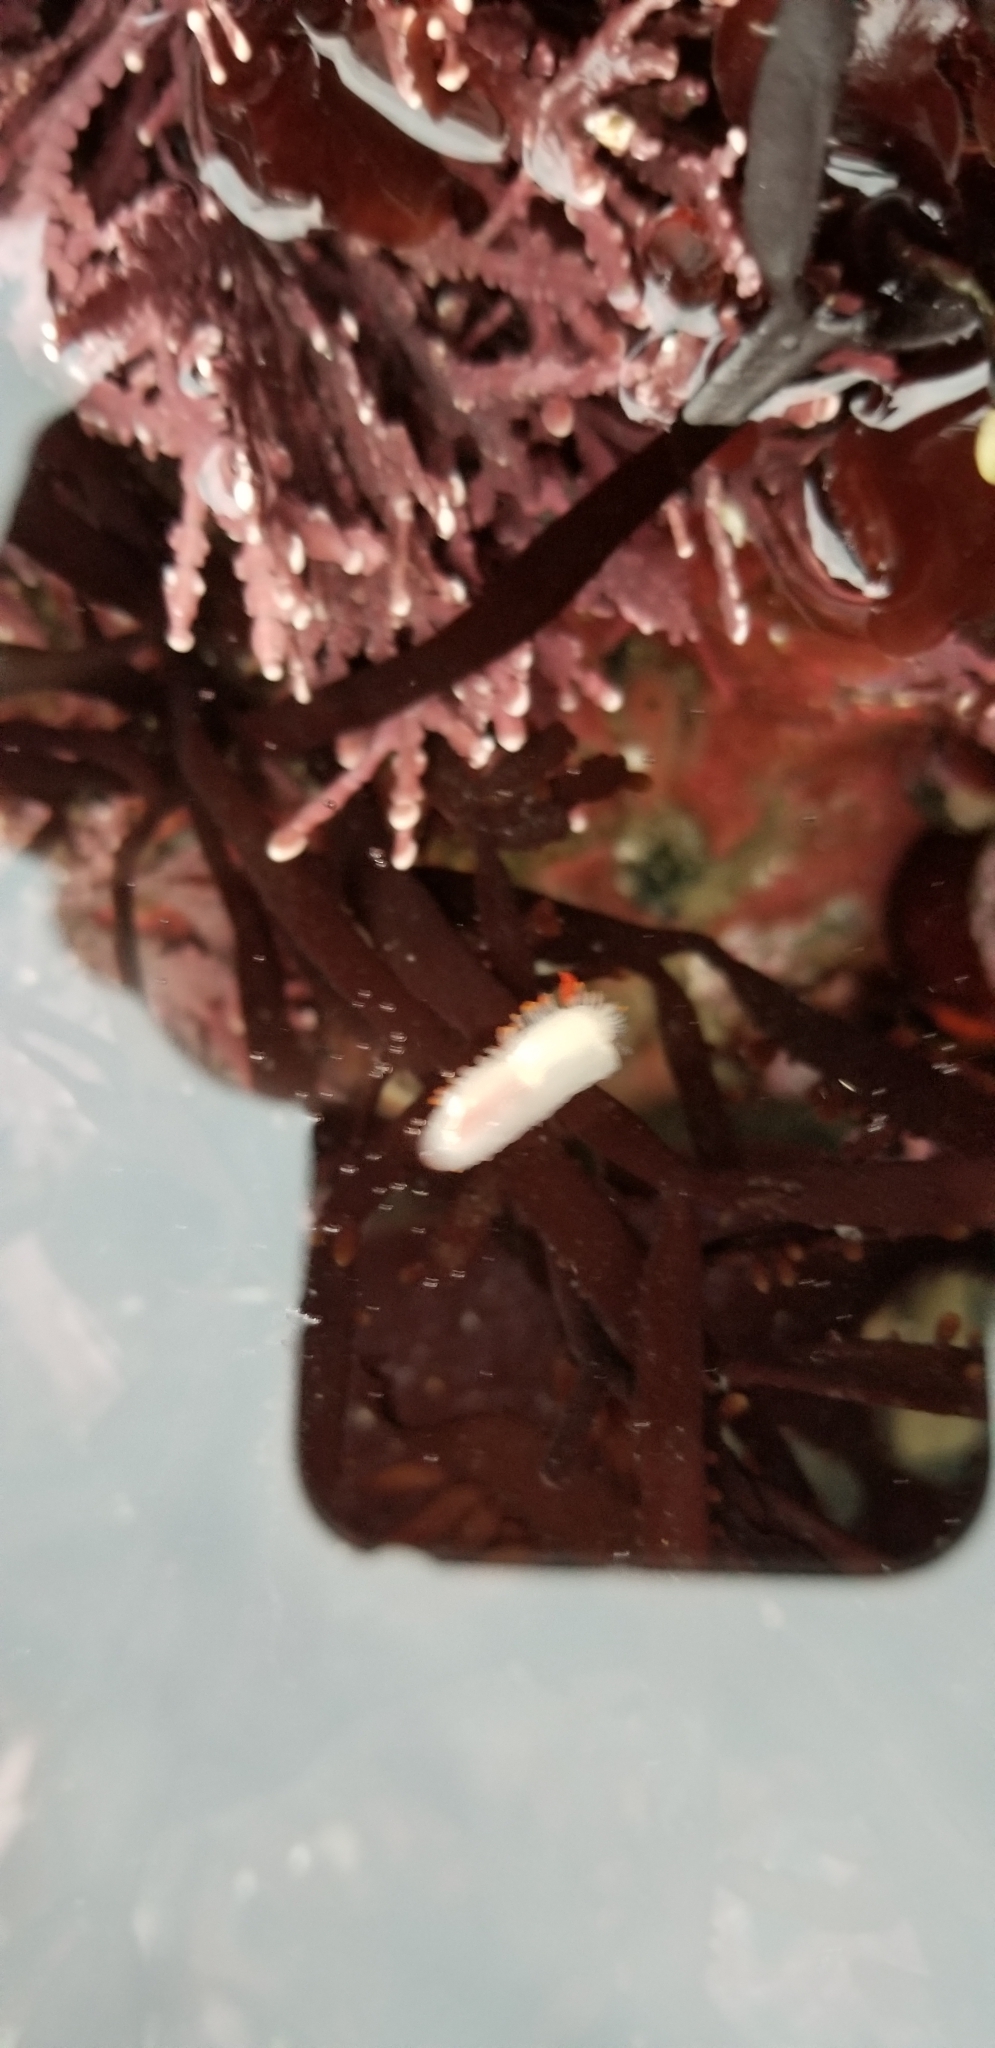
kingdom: Animalia
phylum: Mollusca
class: Gastropoda
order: Nudibranchia
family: Polyceridae
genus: Limacia
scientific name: Limacia cockerelli
